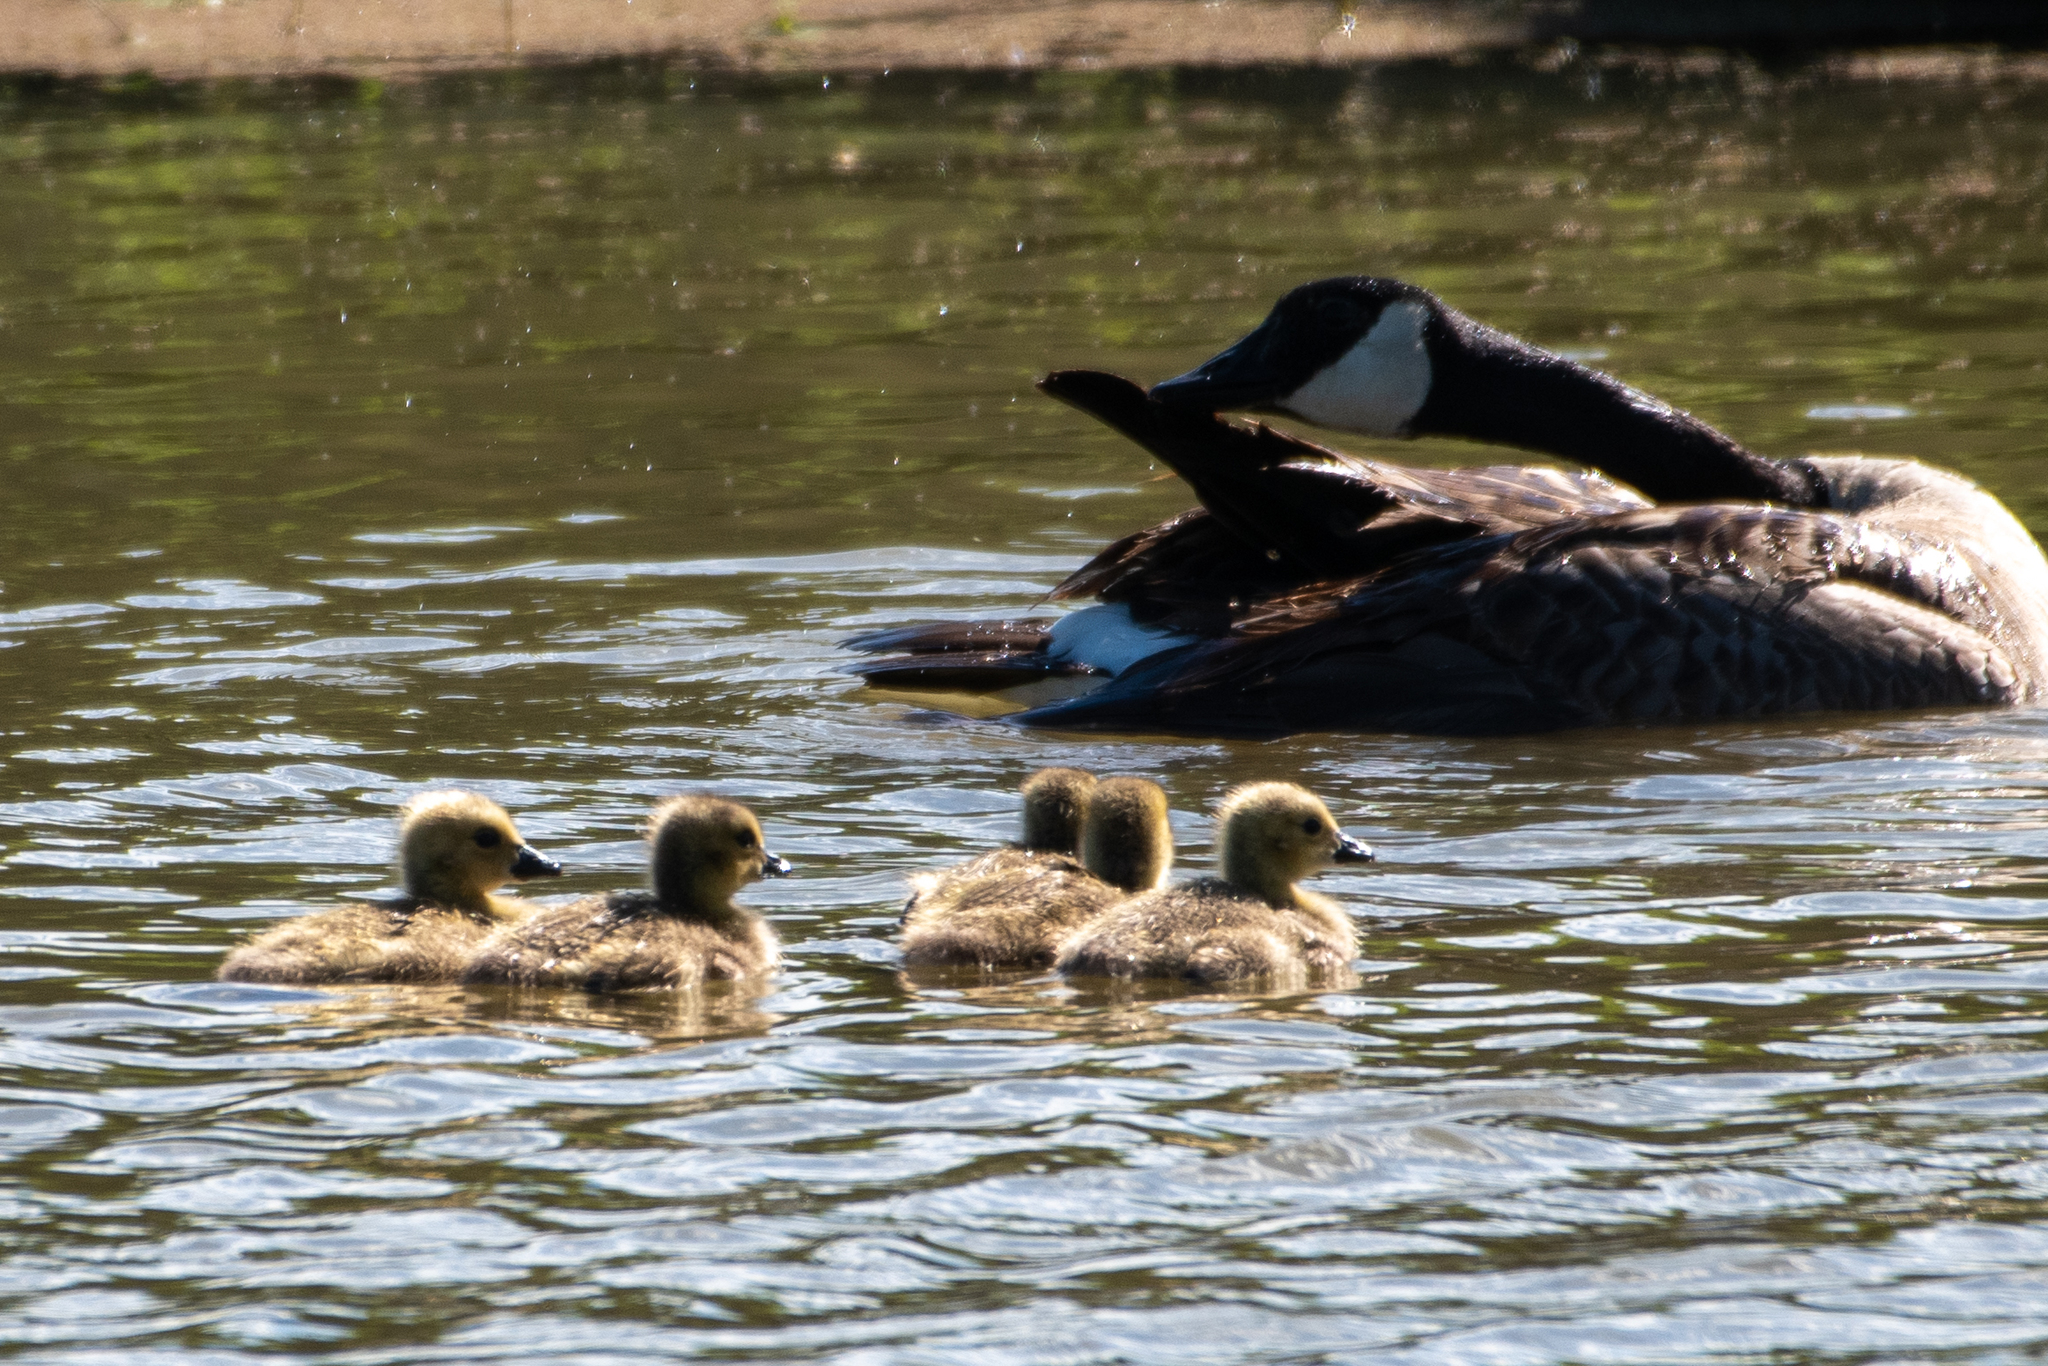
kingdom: Animalia
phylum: Chordata
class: Aves
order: Anseriformes
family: Anatidae
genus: Branta
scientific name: Branta canadensis
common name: Canada goose
